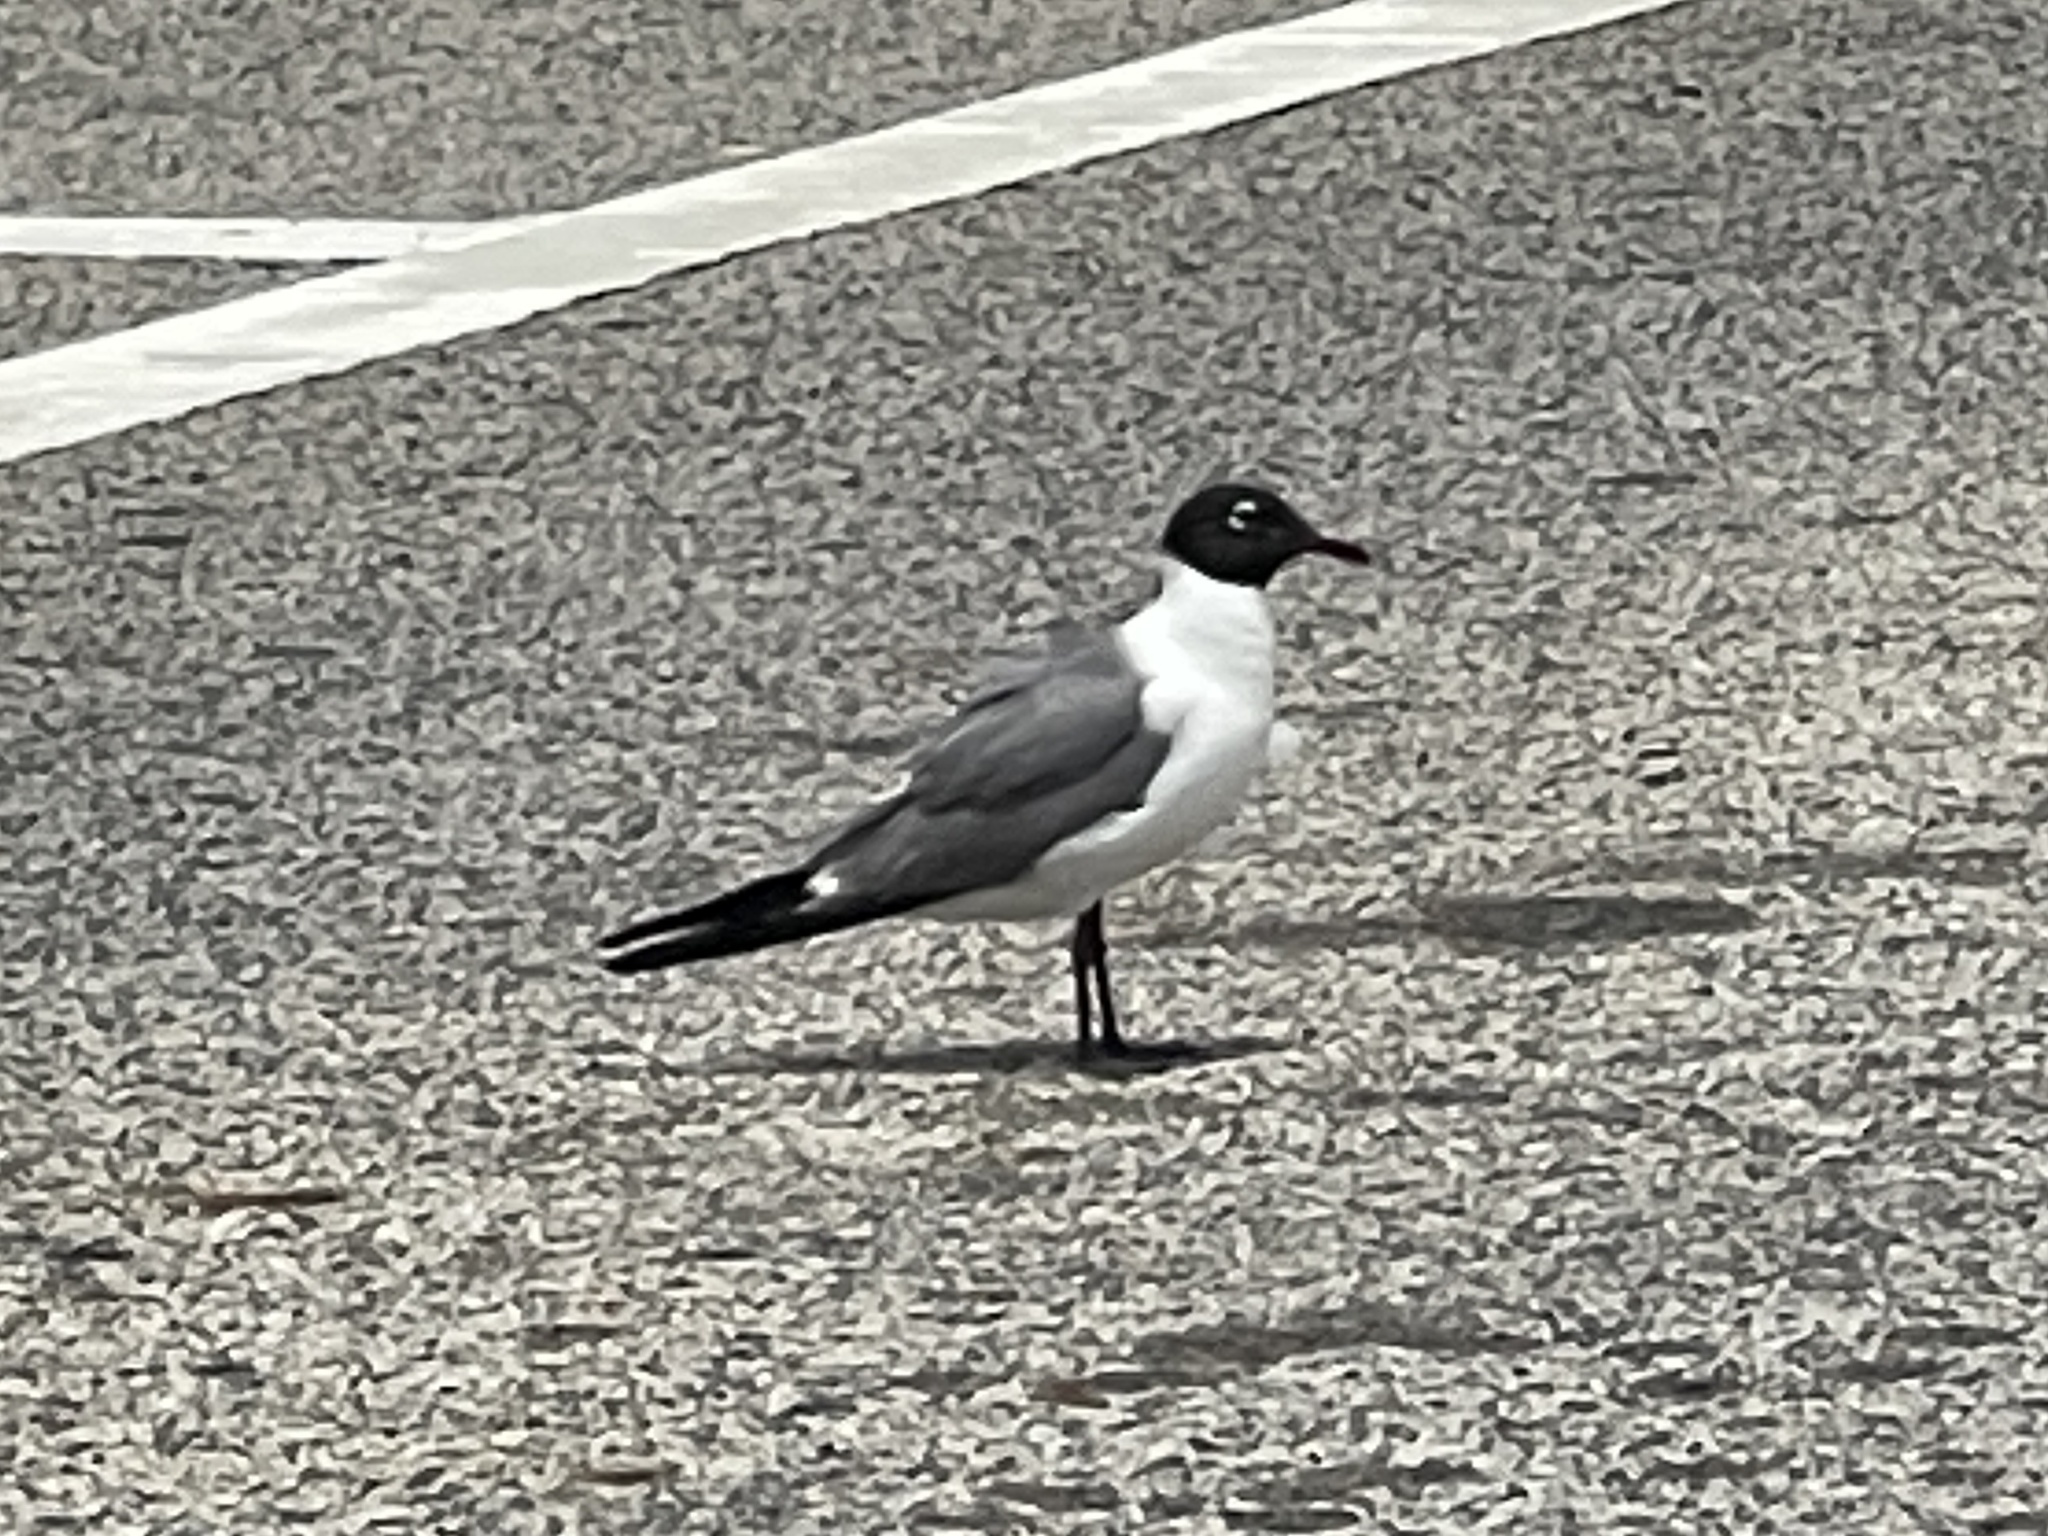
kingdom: Animalia
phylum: Chordata
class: Aves
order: Charadriiformes
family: Laridae
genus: Leucophaeus
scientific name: Leucophaeus atricilla
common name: Laughing gull
